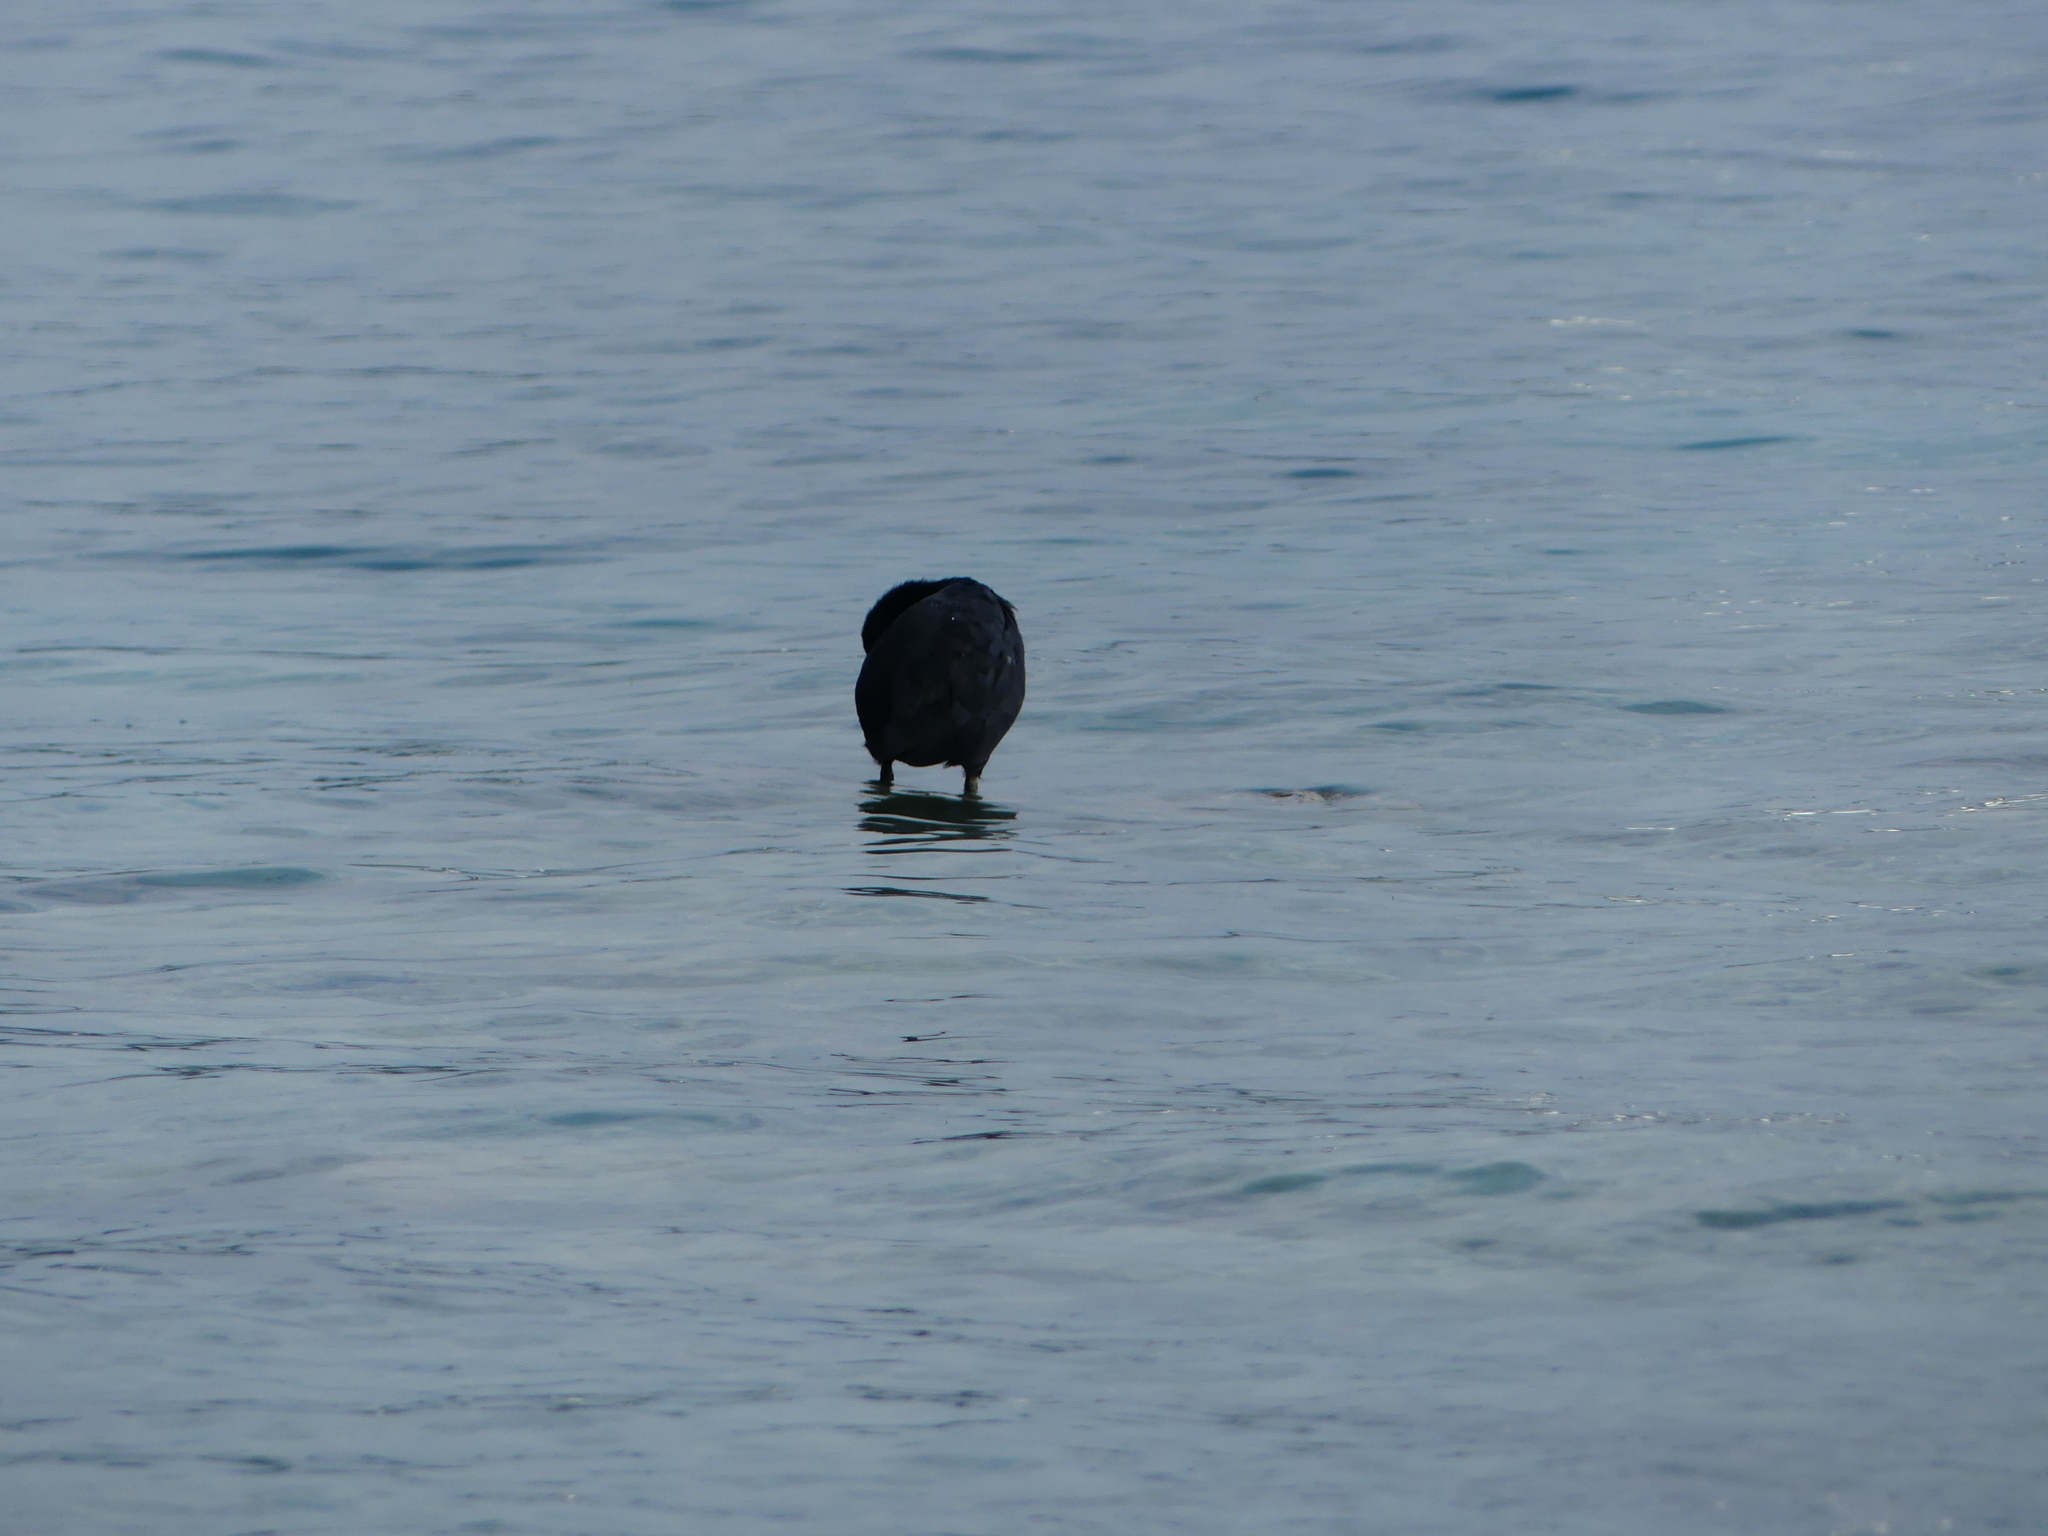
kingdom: Animalia
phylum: Chordata
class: Aves
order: Gruiformes
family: Rallidae
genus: Fulica
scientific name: Fulica atra
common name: Eurasian coot
